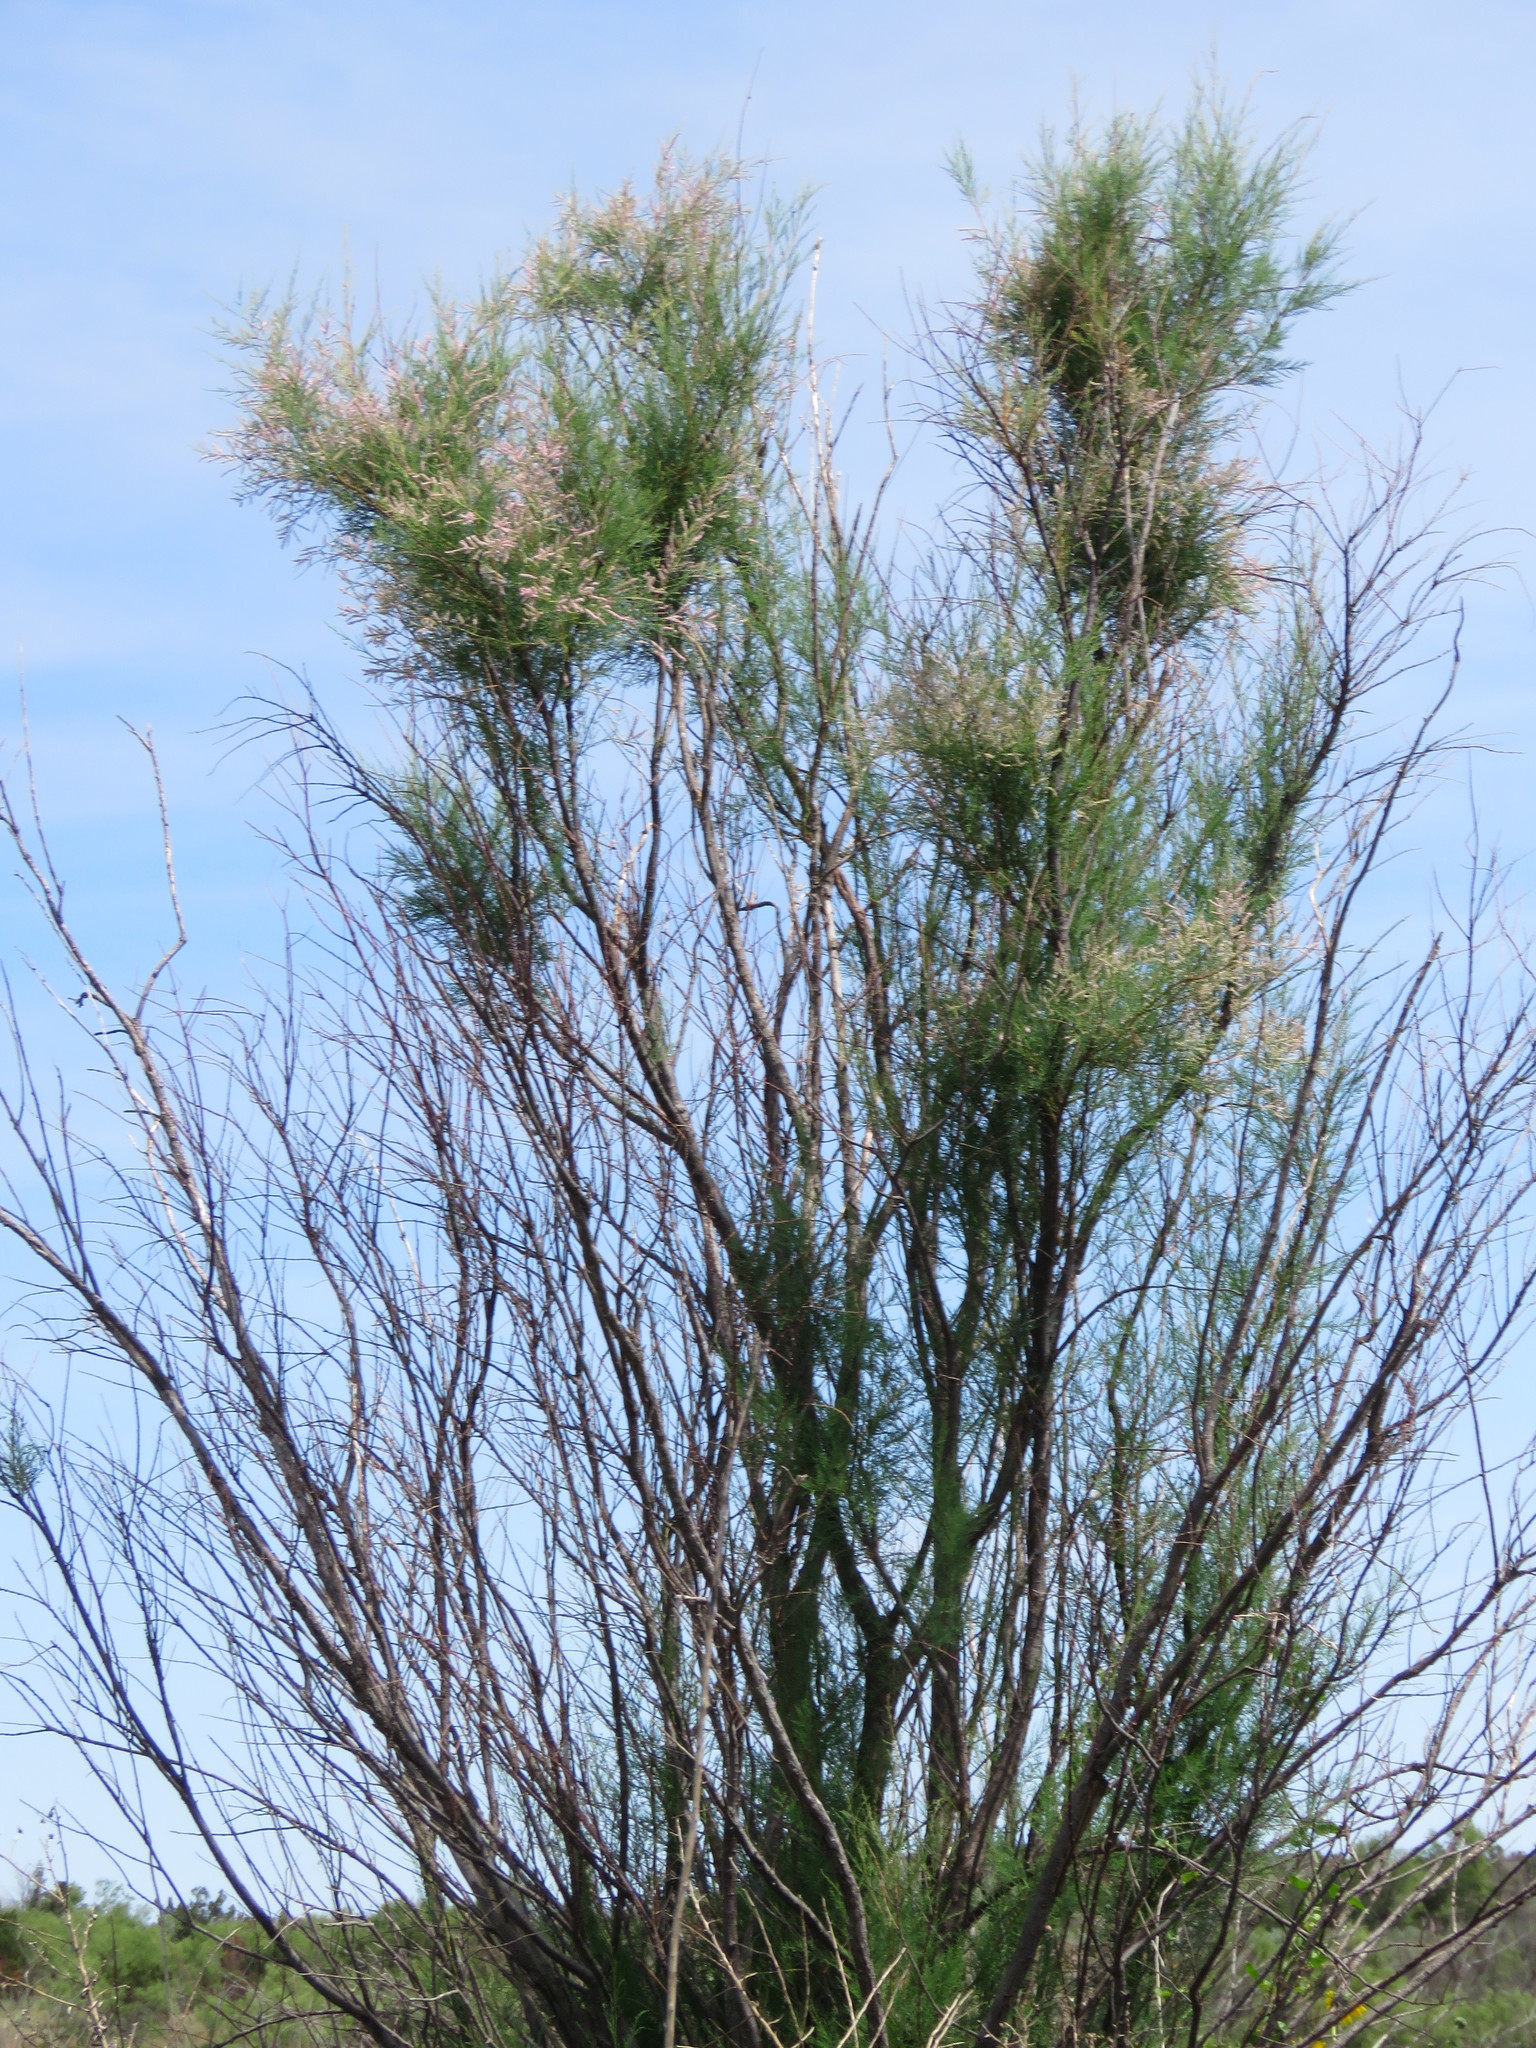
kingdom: Plantae
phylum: Tracheophyta
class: Magnoliopsida
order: Caryophyllales
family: Tamaricaceae
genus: Tamarix
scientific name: Tamarix ramosissima
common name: Pink tamarisk
